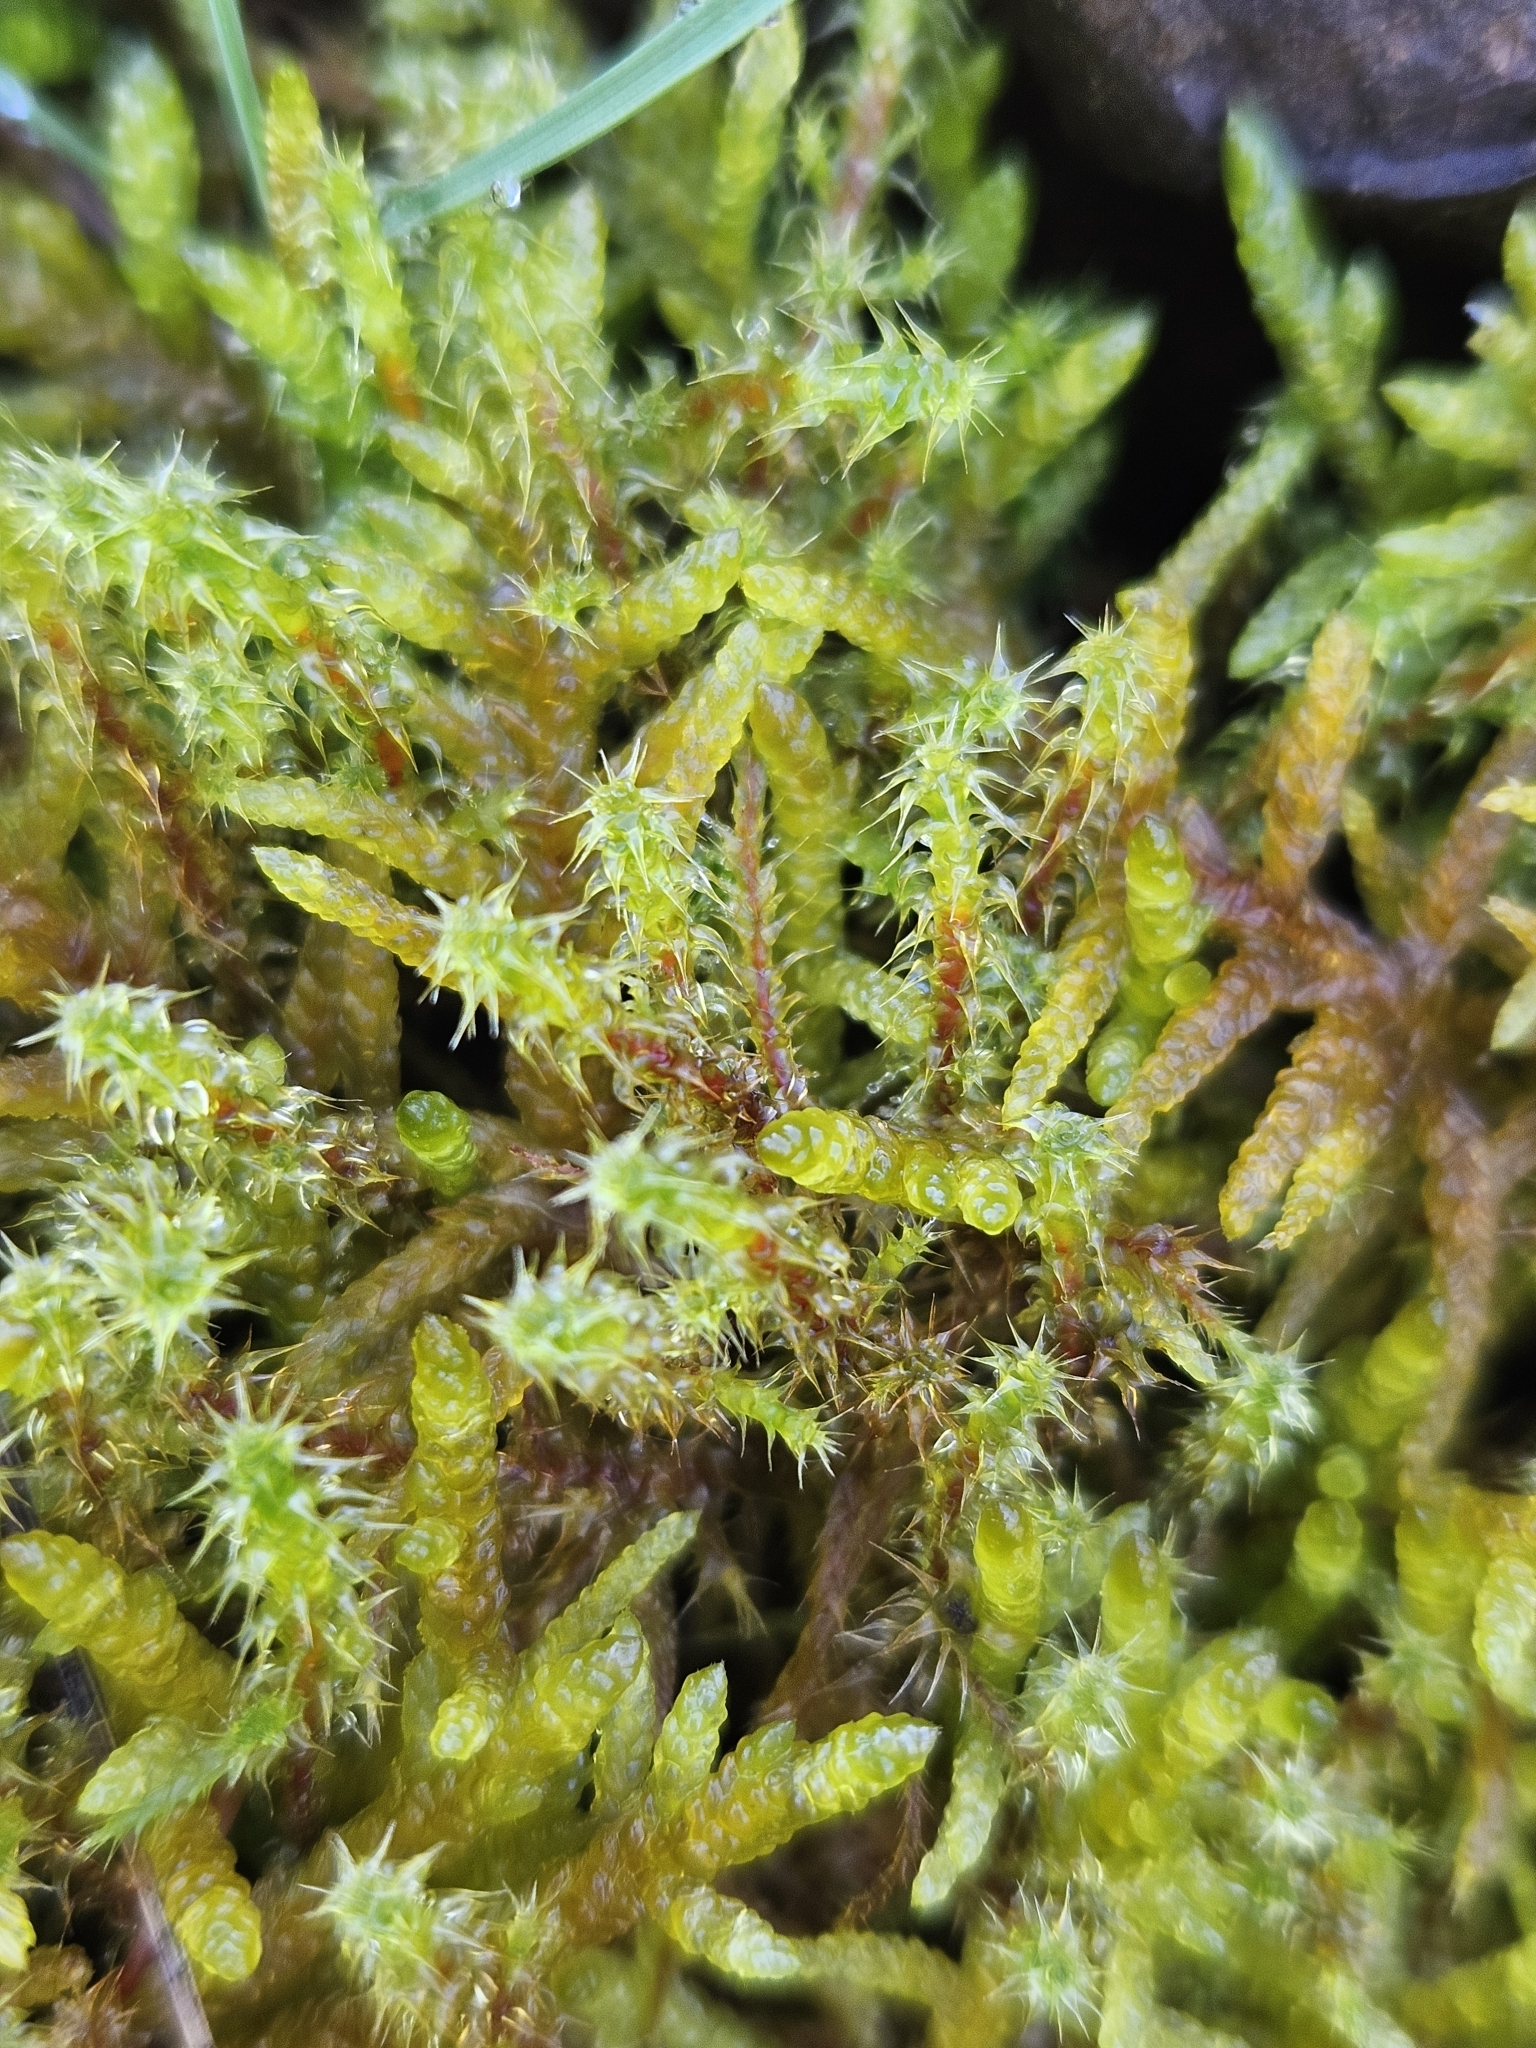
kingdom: Plantae
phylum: Bryophyta
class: Bryopsida
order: Hypnales
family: Hylocomiaceae
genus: Rhytidiadelphus
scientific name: Rhytidiadelphus squarrosus
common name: Springy turf-moss
